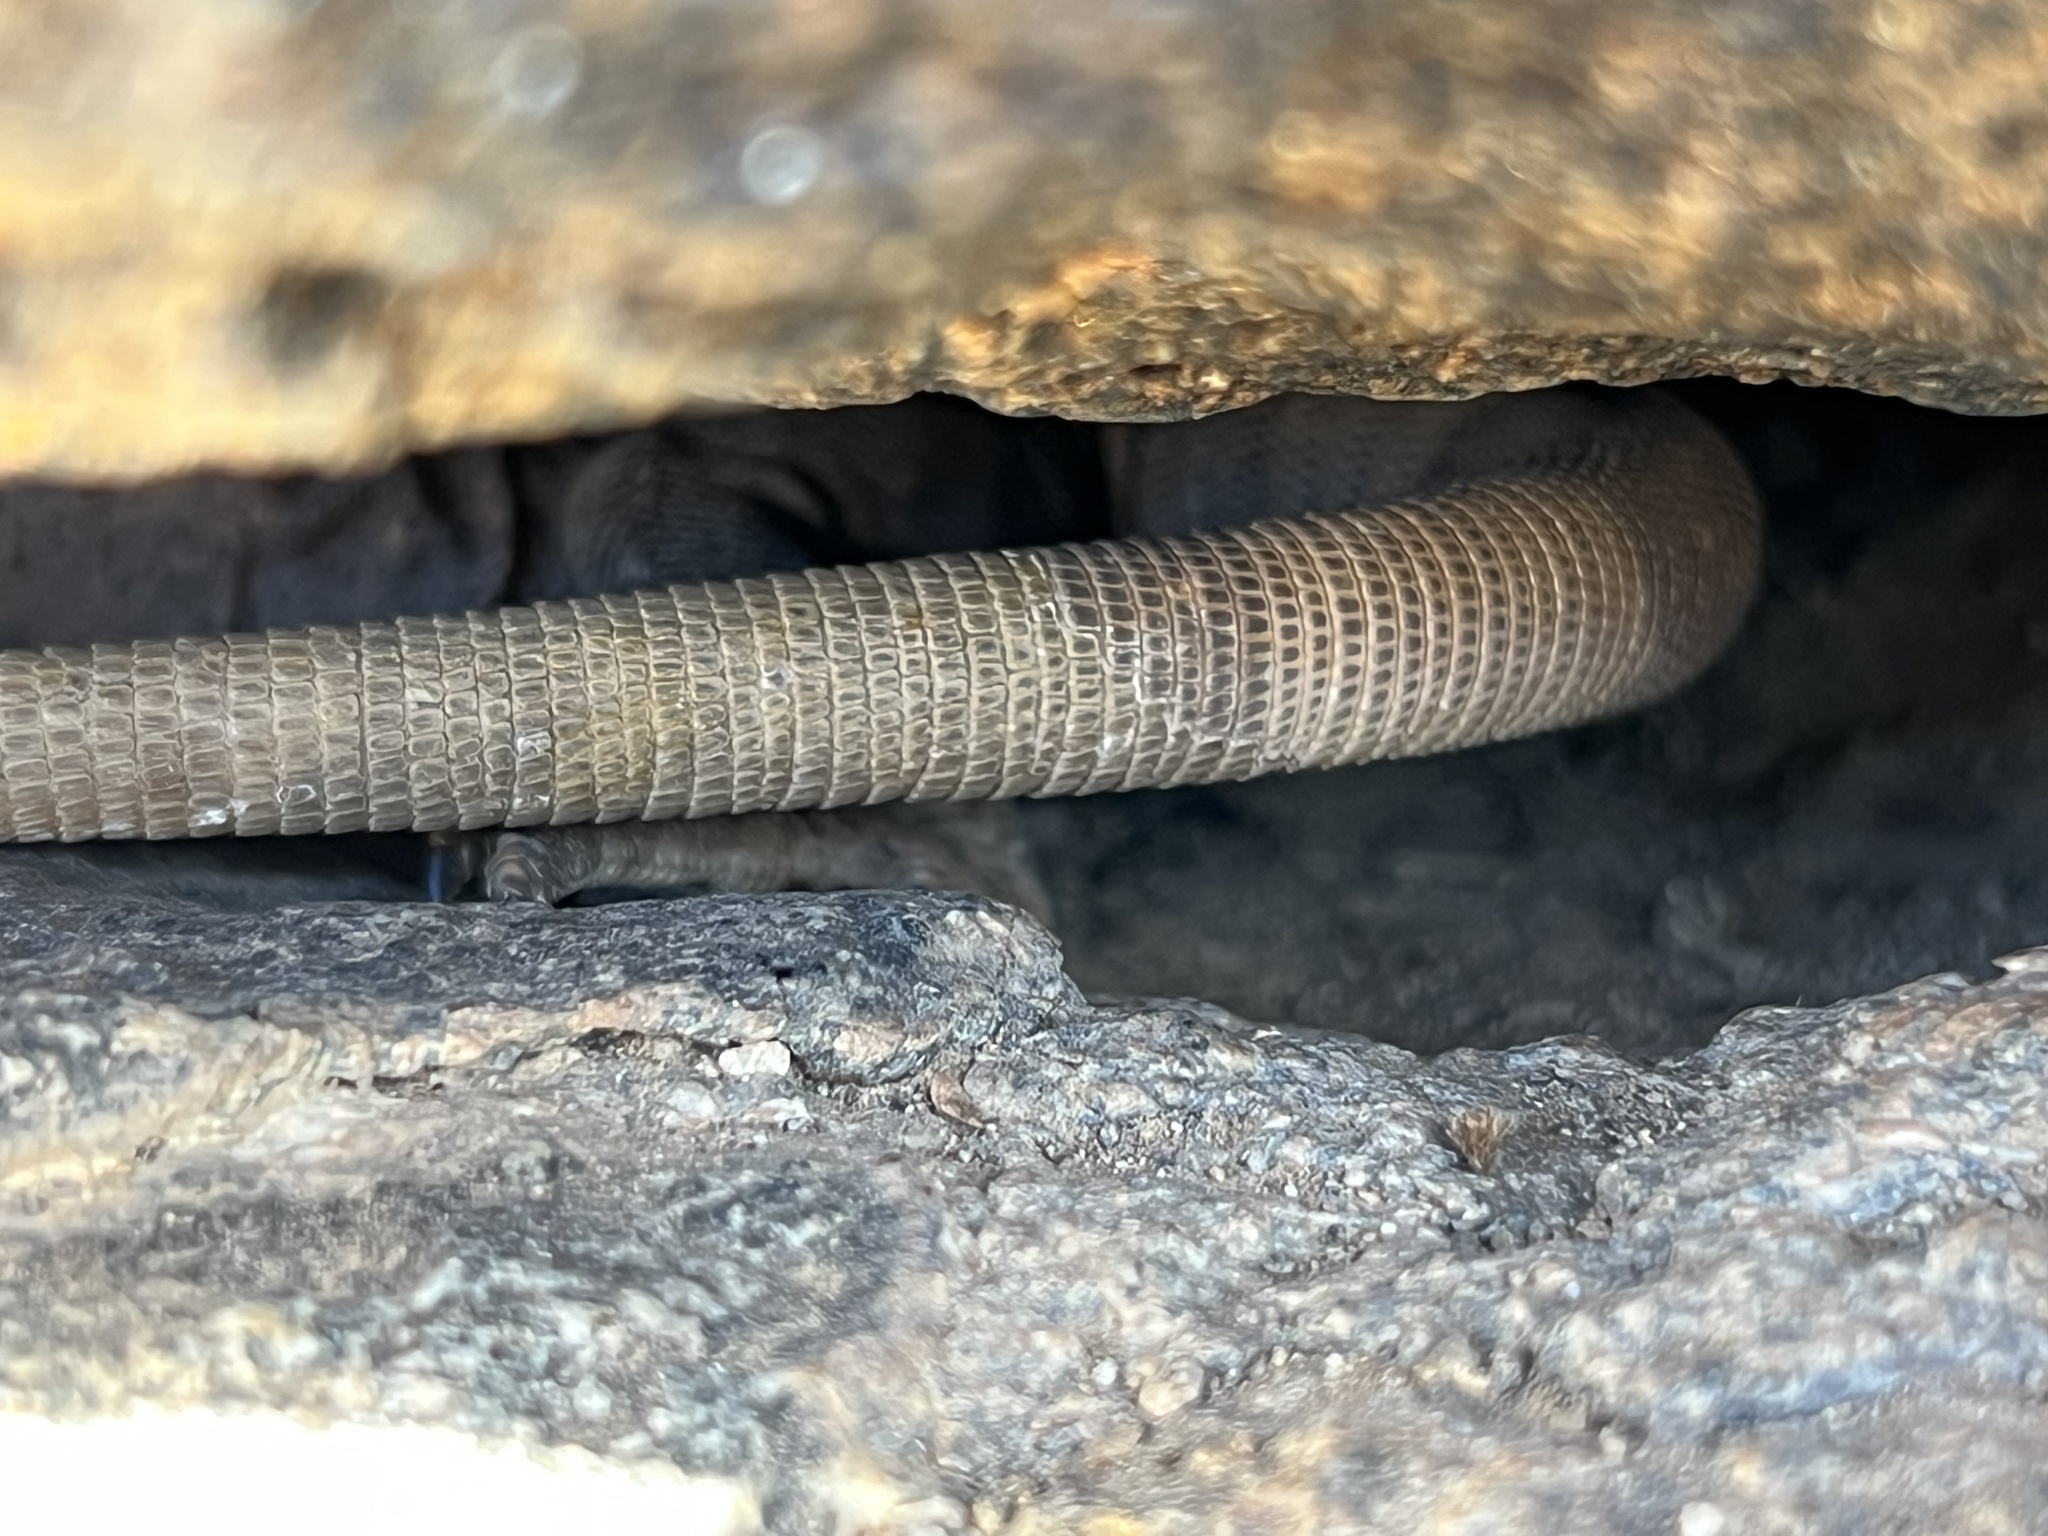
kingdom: Animalia
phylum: Chordata
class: Squamata
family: Iguanidae
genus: Sauromalus
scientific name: Sauromalus ater
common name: Northern chuckwalla
